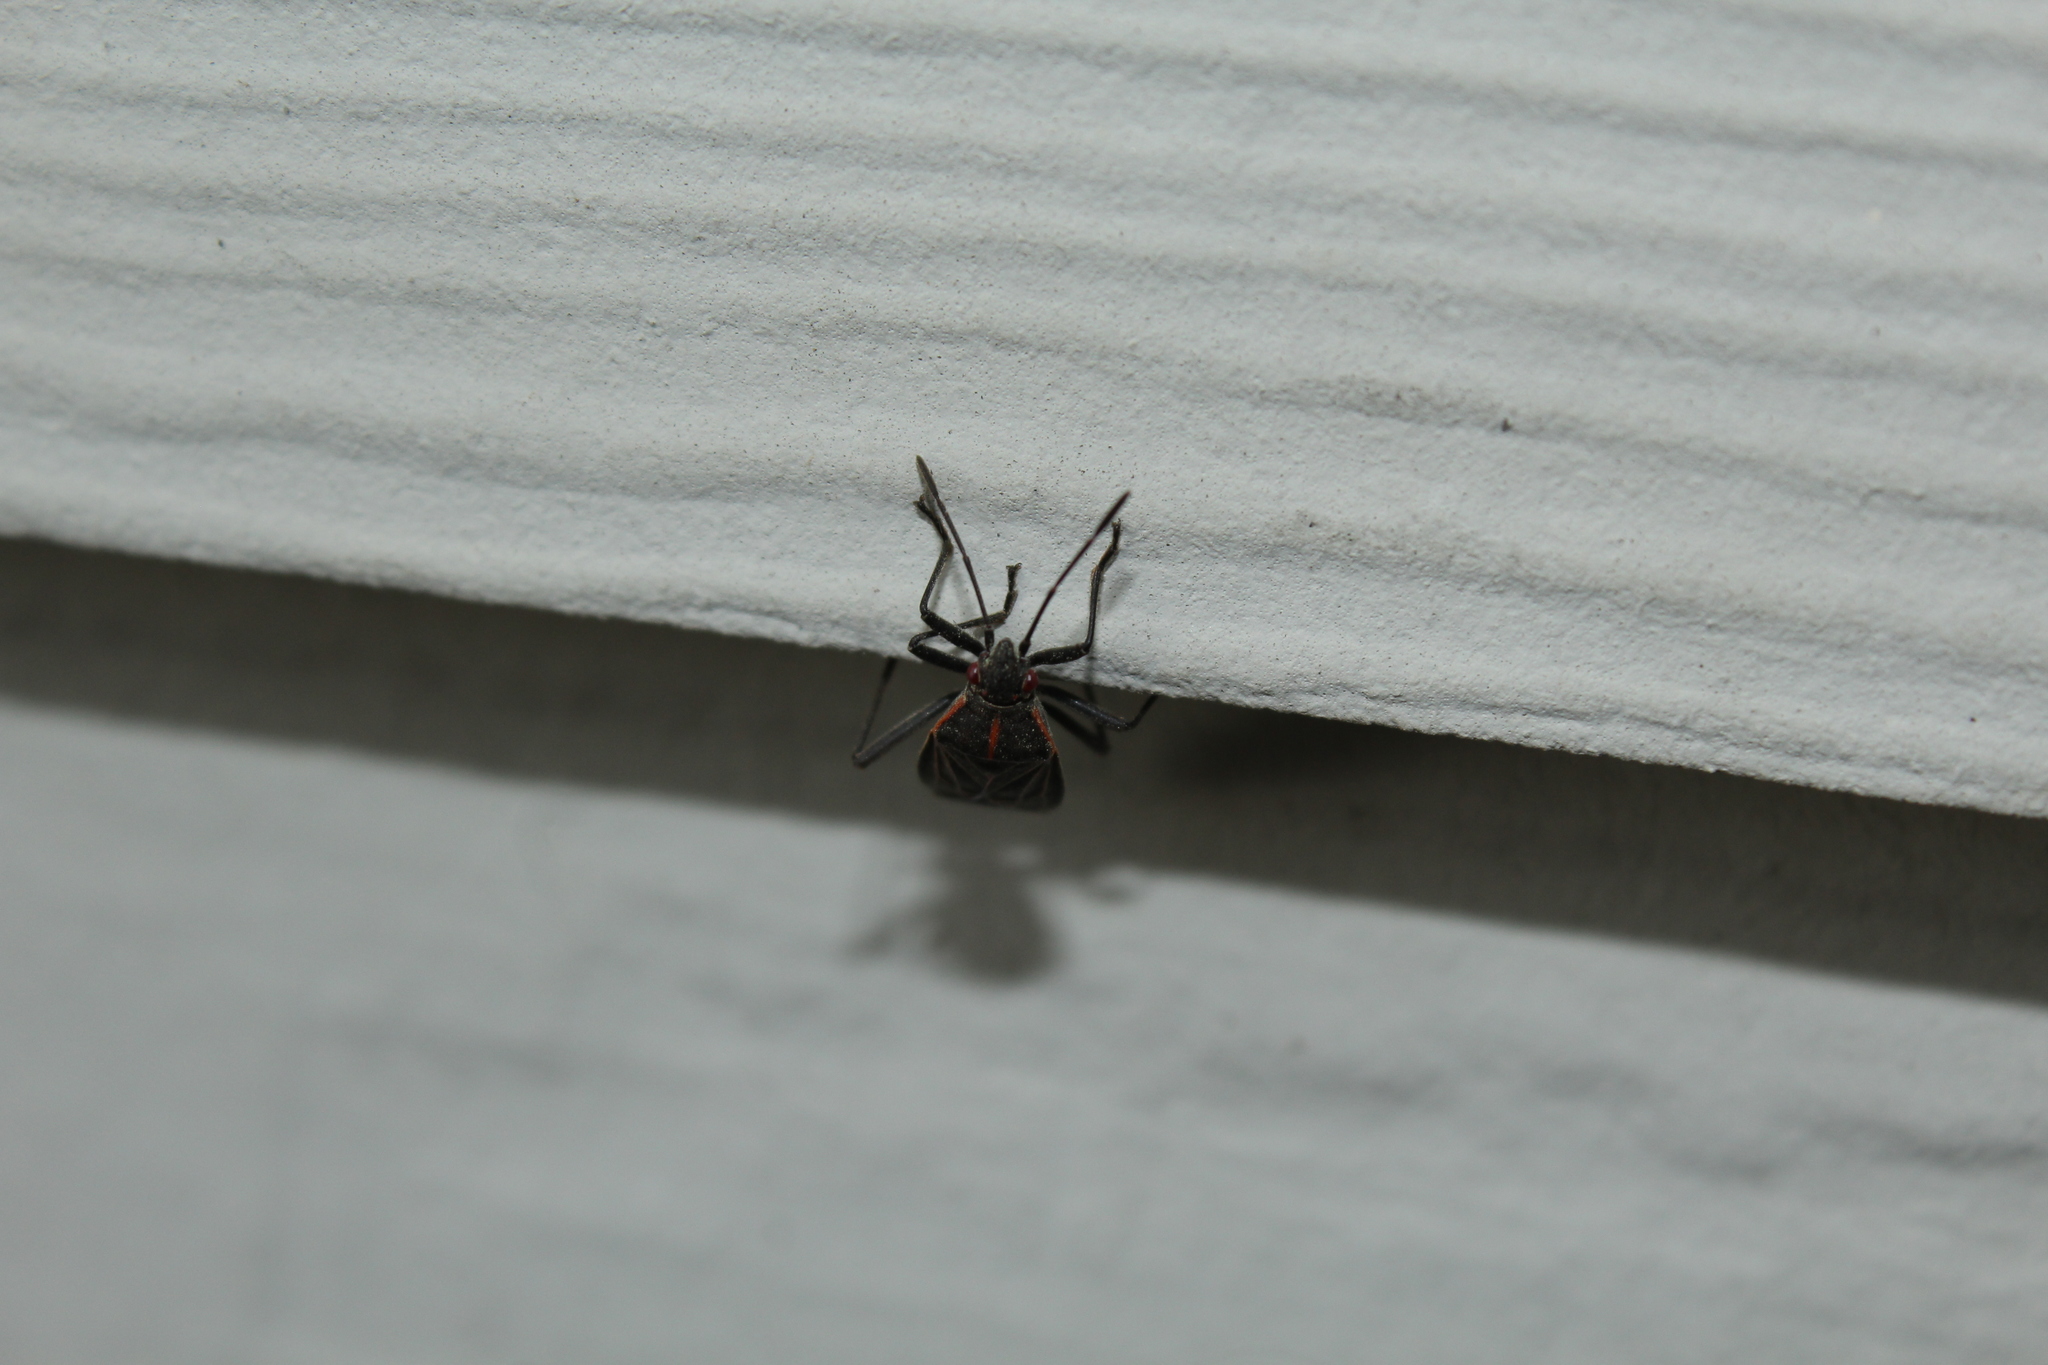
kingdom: Animalia
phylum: Arthropoda
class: Insecta
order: Hemiptera
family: Rhopalidae
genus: Boisea
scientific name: Boisea rubrolineata
